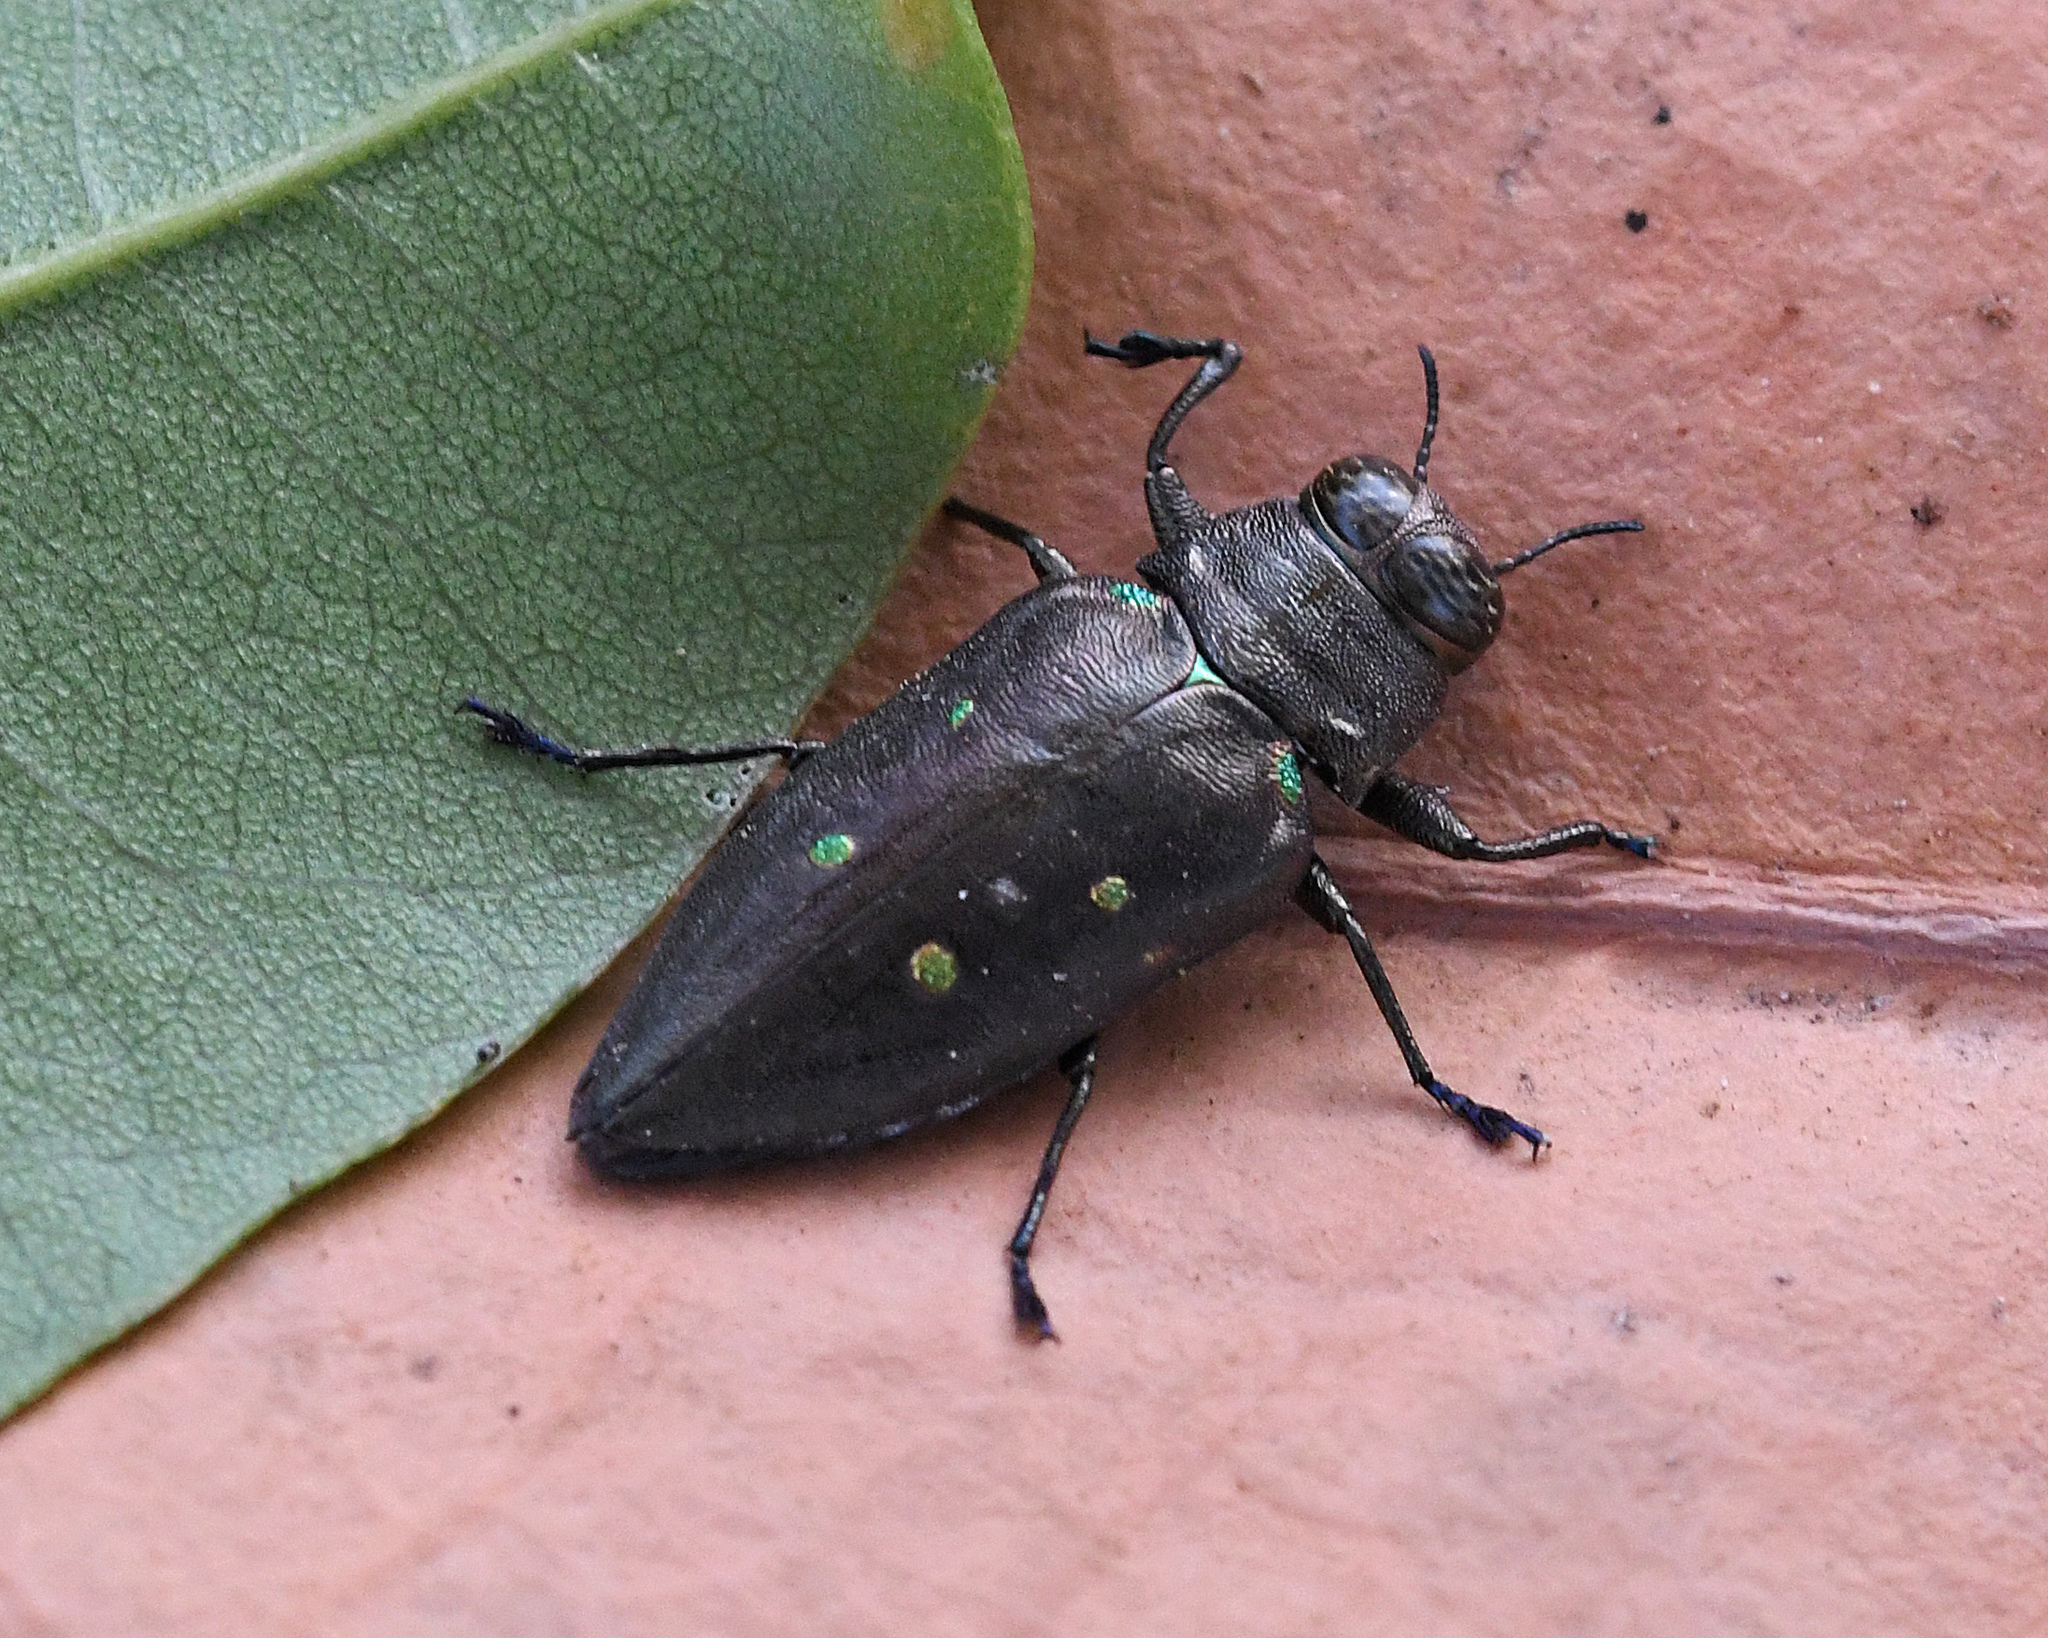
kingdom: Animalia
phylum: Arthropoda
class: Insecta
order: Coleoptera
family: Buprestidae
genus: Actenodes
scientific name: Actenodes bellulus
